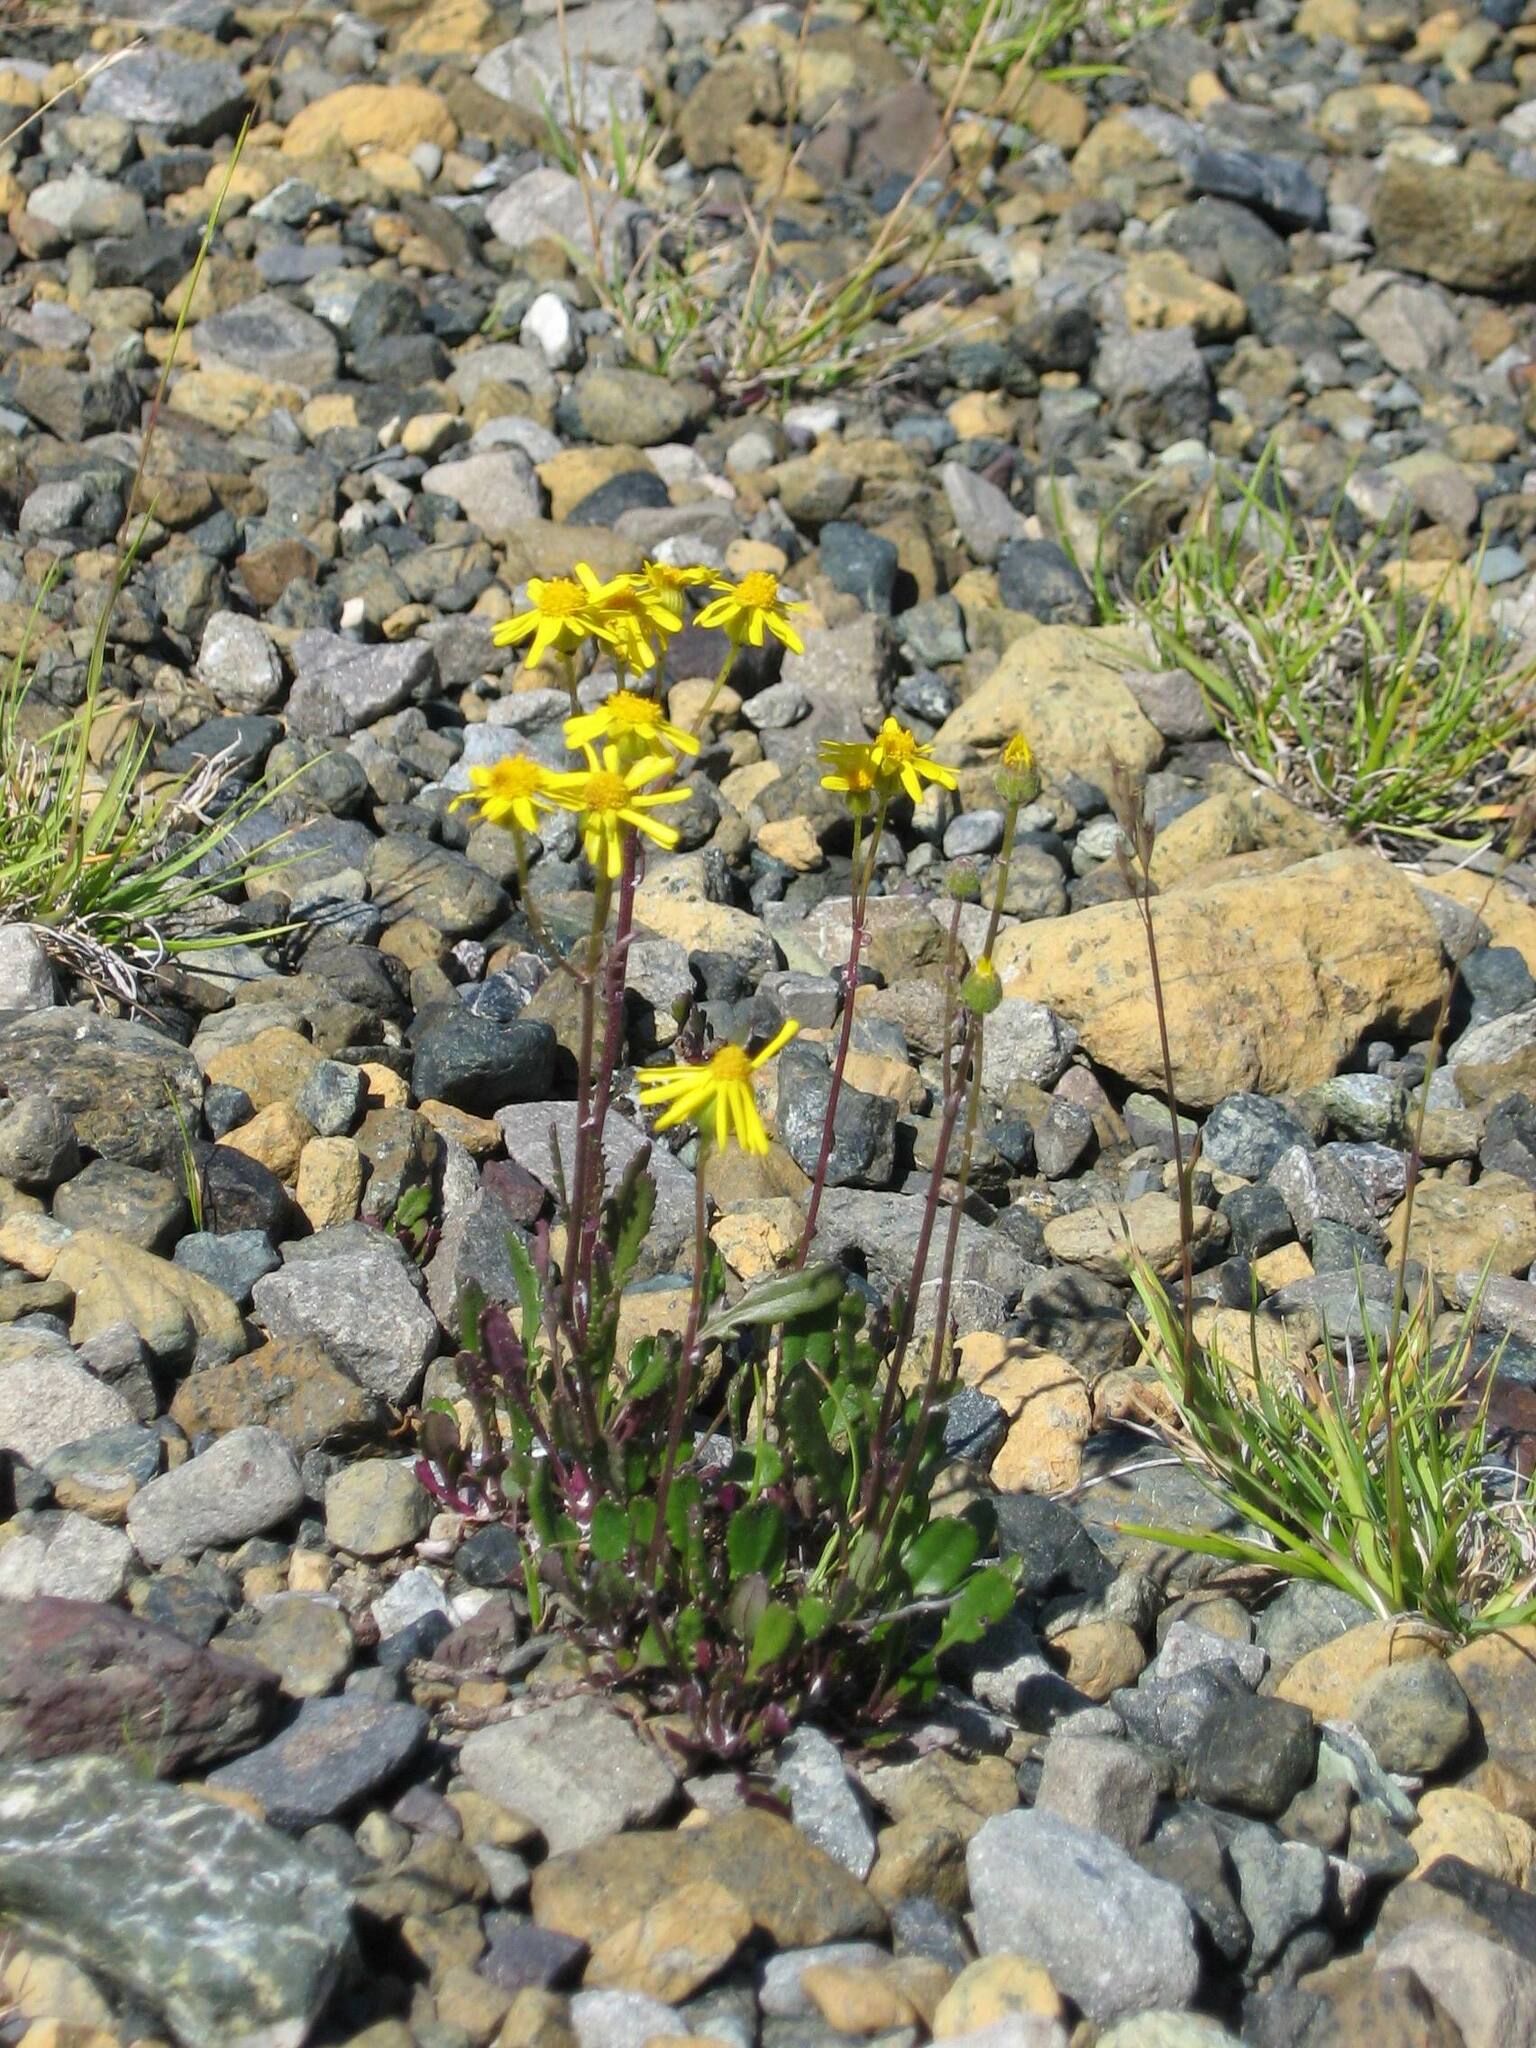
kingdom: Plantae
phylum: Tracheophyta
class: Magnoliopsida
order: Asterales
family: Asteraceae
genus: Packera
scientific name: Packera paupercula
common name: Balsam groundsel
